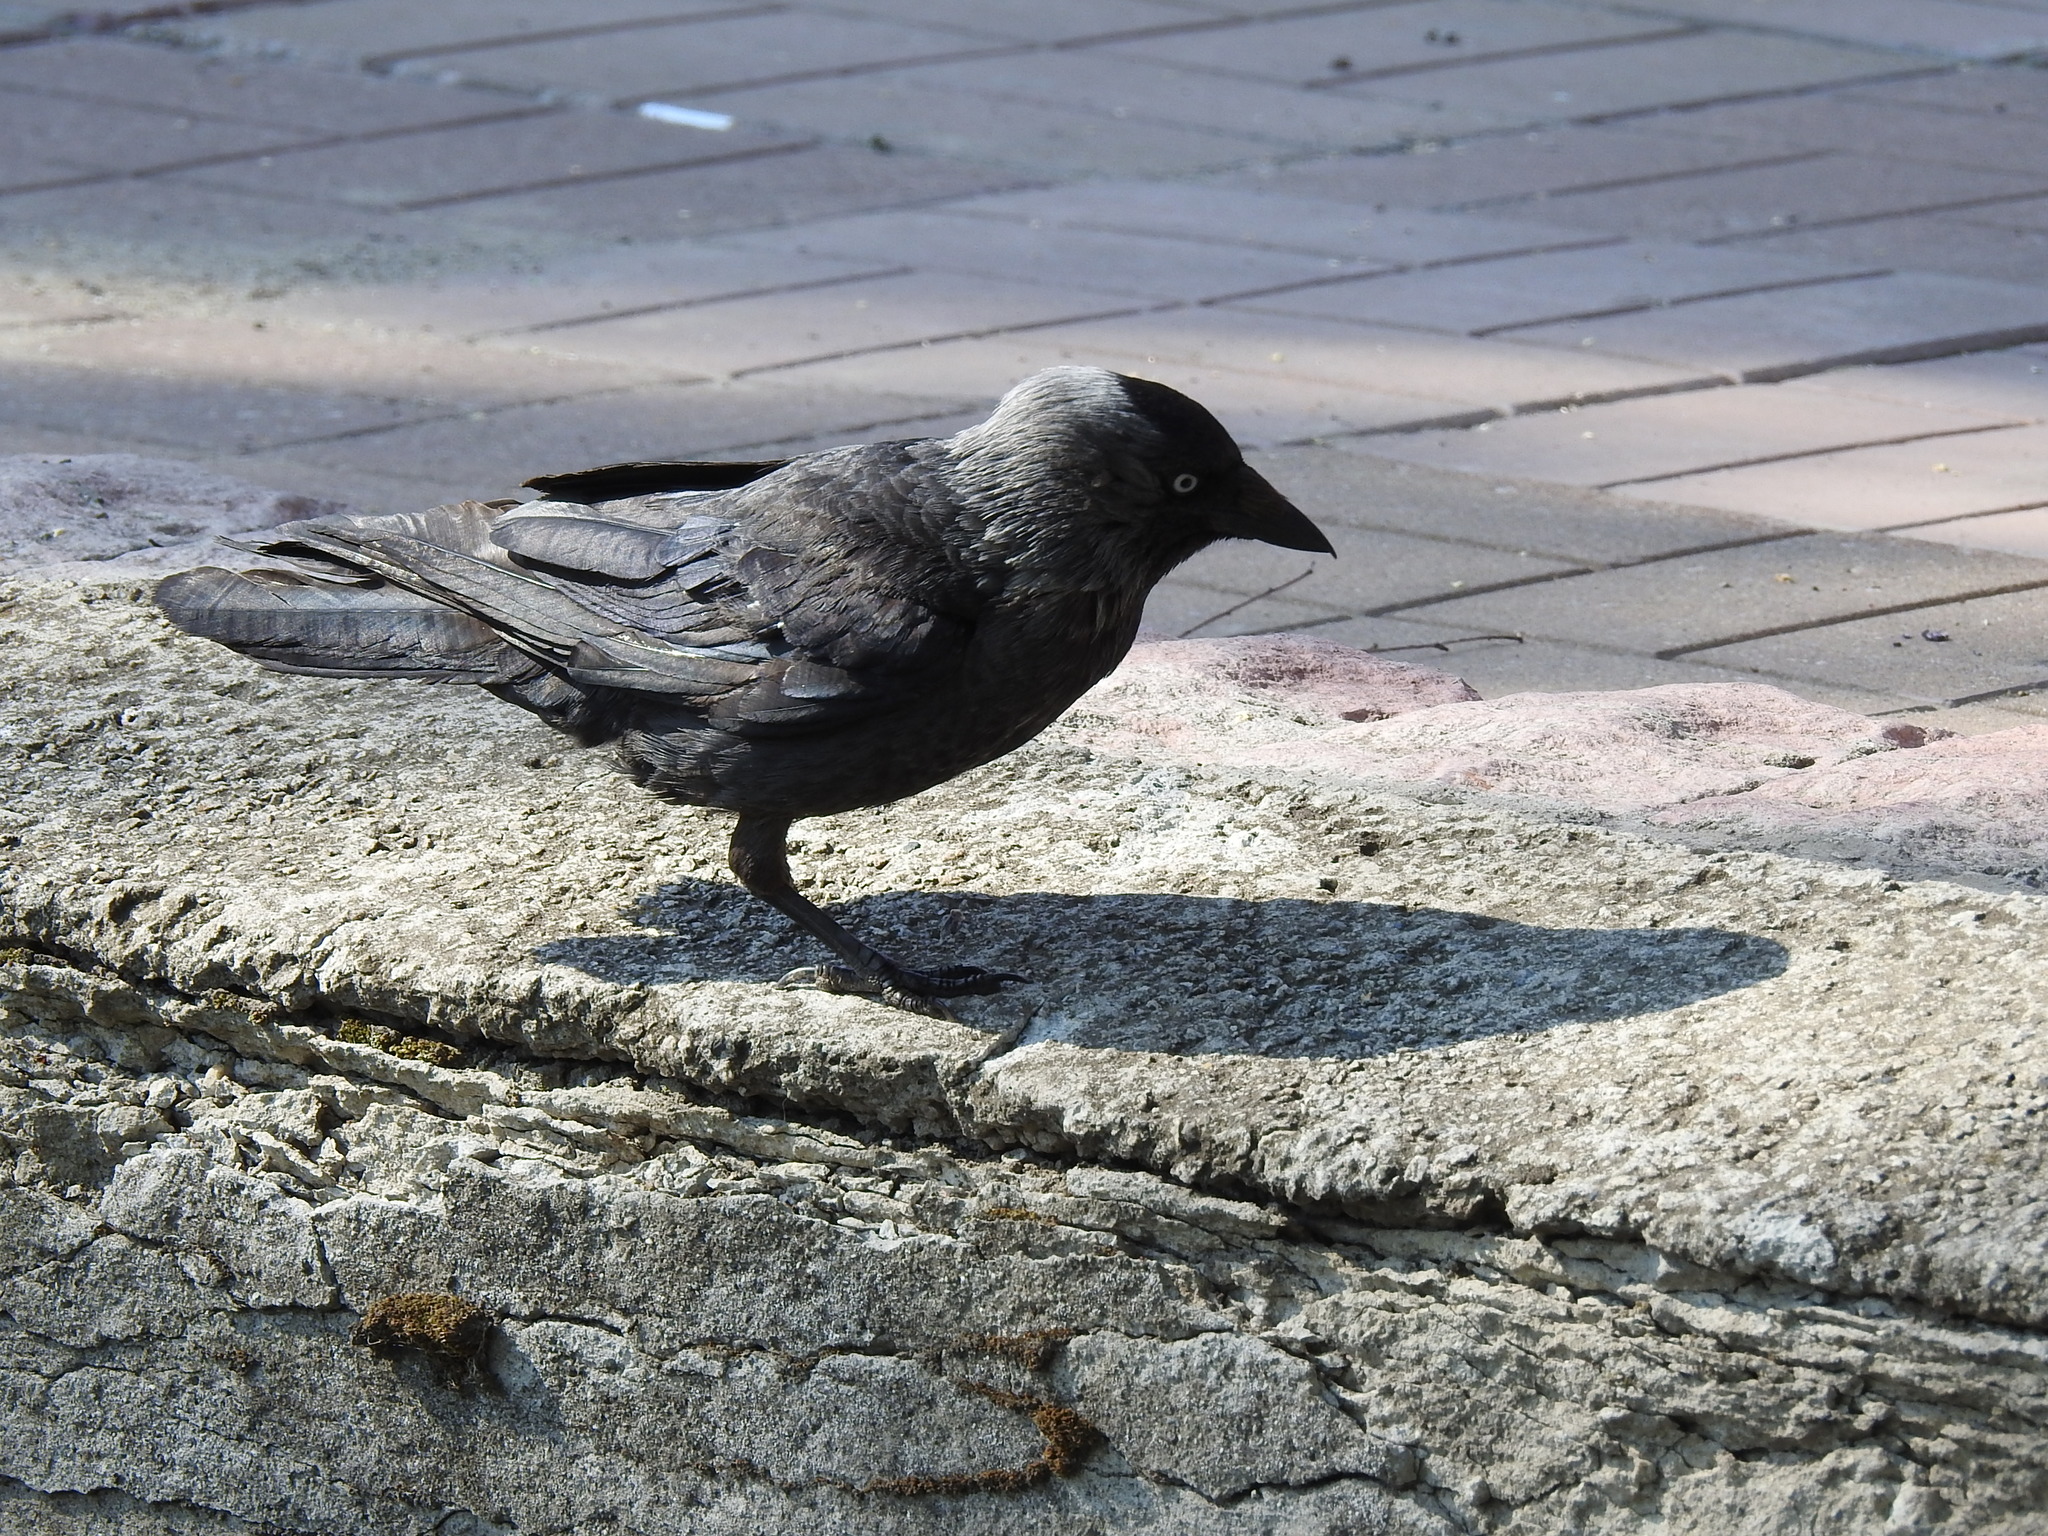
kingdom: Animalia
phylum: Chordata
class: Aves
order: Passeriformes
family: Corvidae
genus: Coloeus
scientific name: Coloeus monedula
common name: Western jackdaw
